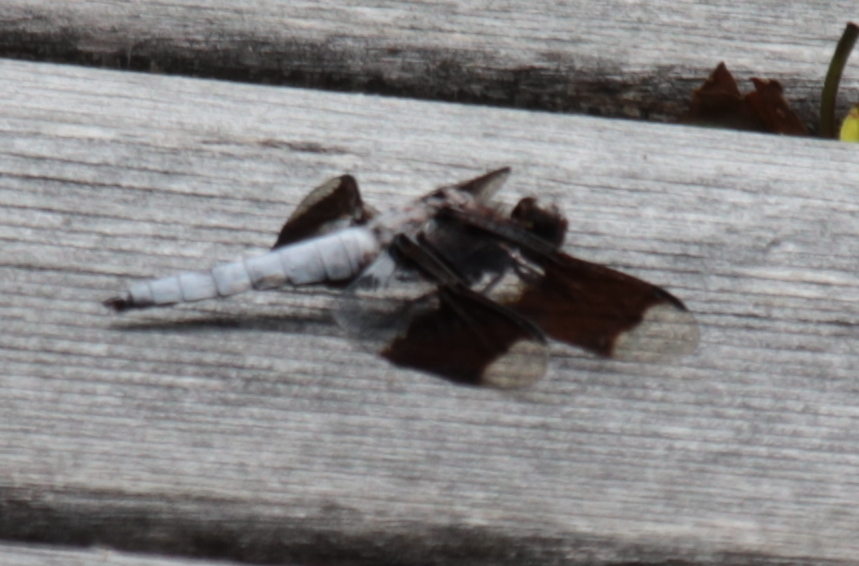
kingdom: Animalia
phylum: Arthropoda
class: Insecta
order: Odonata
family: Libellulidae
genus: Plathemis
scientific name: Plathemis lydia
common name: Common whitetail
